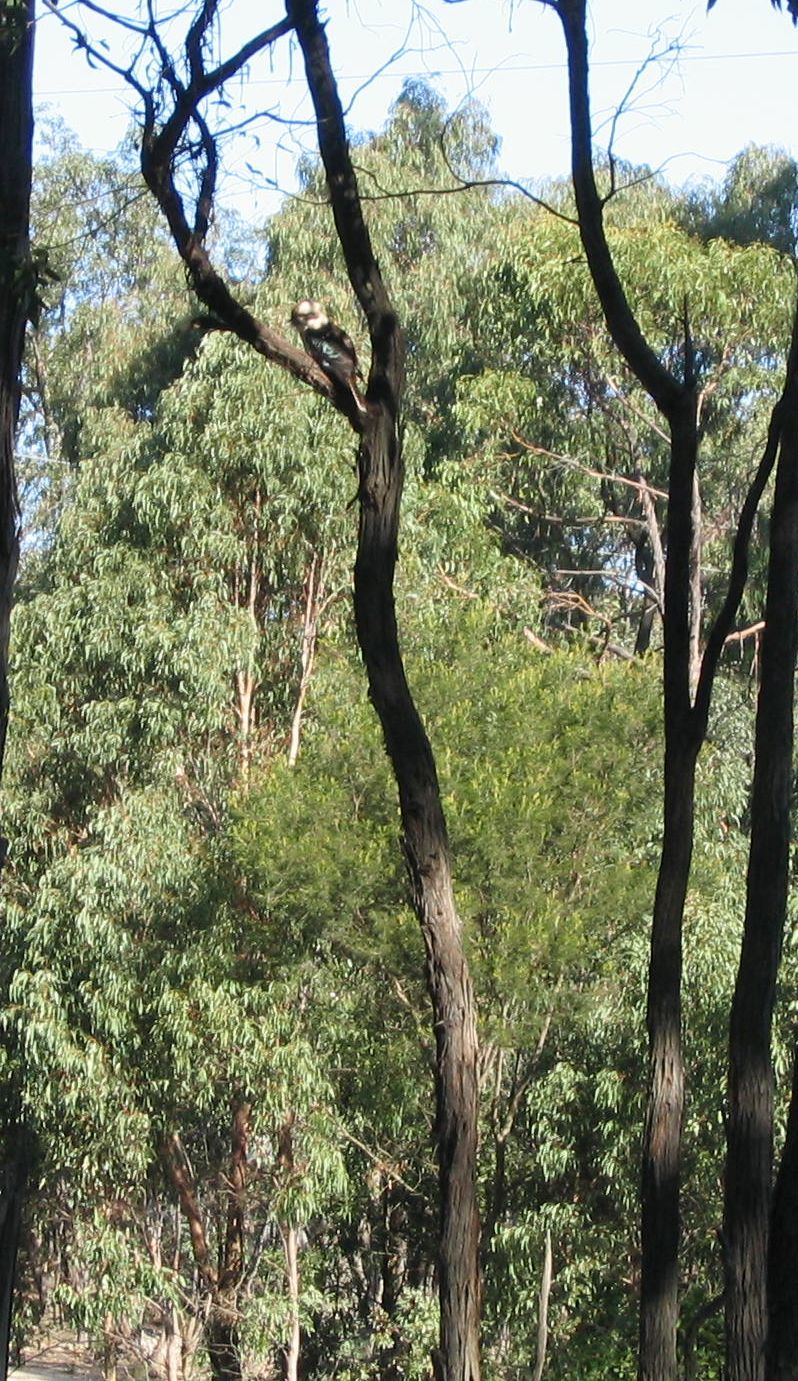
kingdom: Animalia
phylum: Chordata
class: Aves
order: Coraciiformes
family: Alcedinidae
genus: Dacelo
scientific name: Dacelo novaeguineae
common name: Laughing kookaburra
